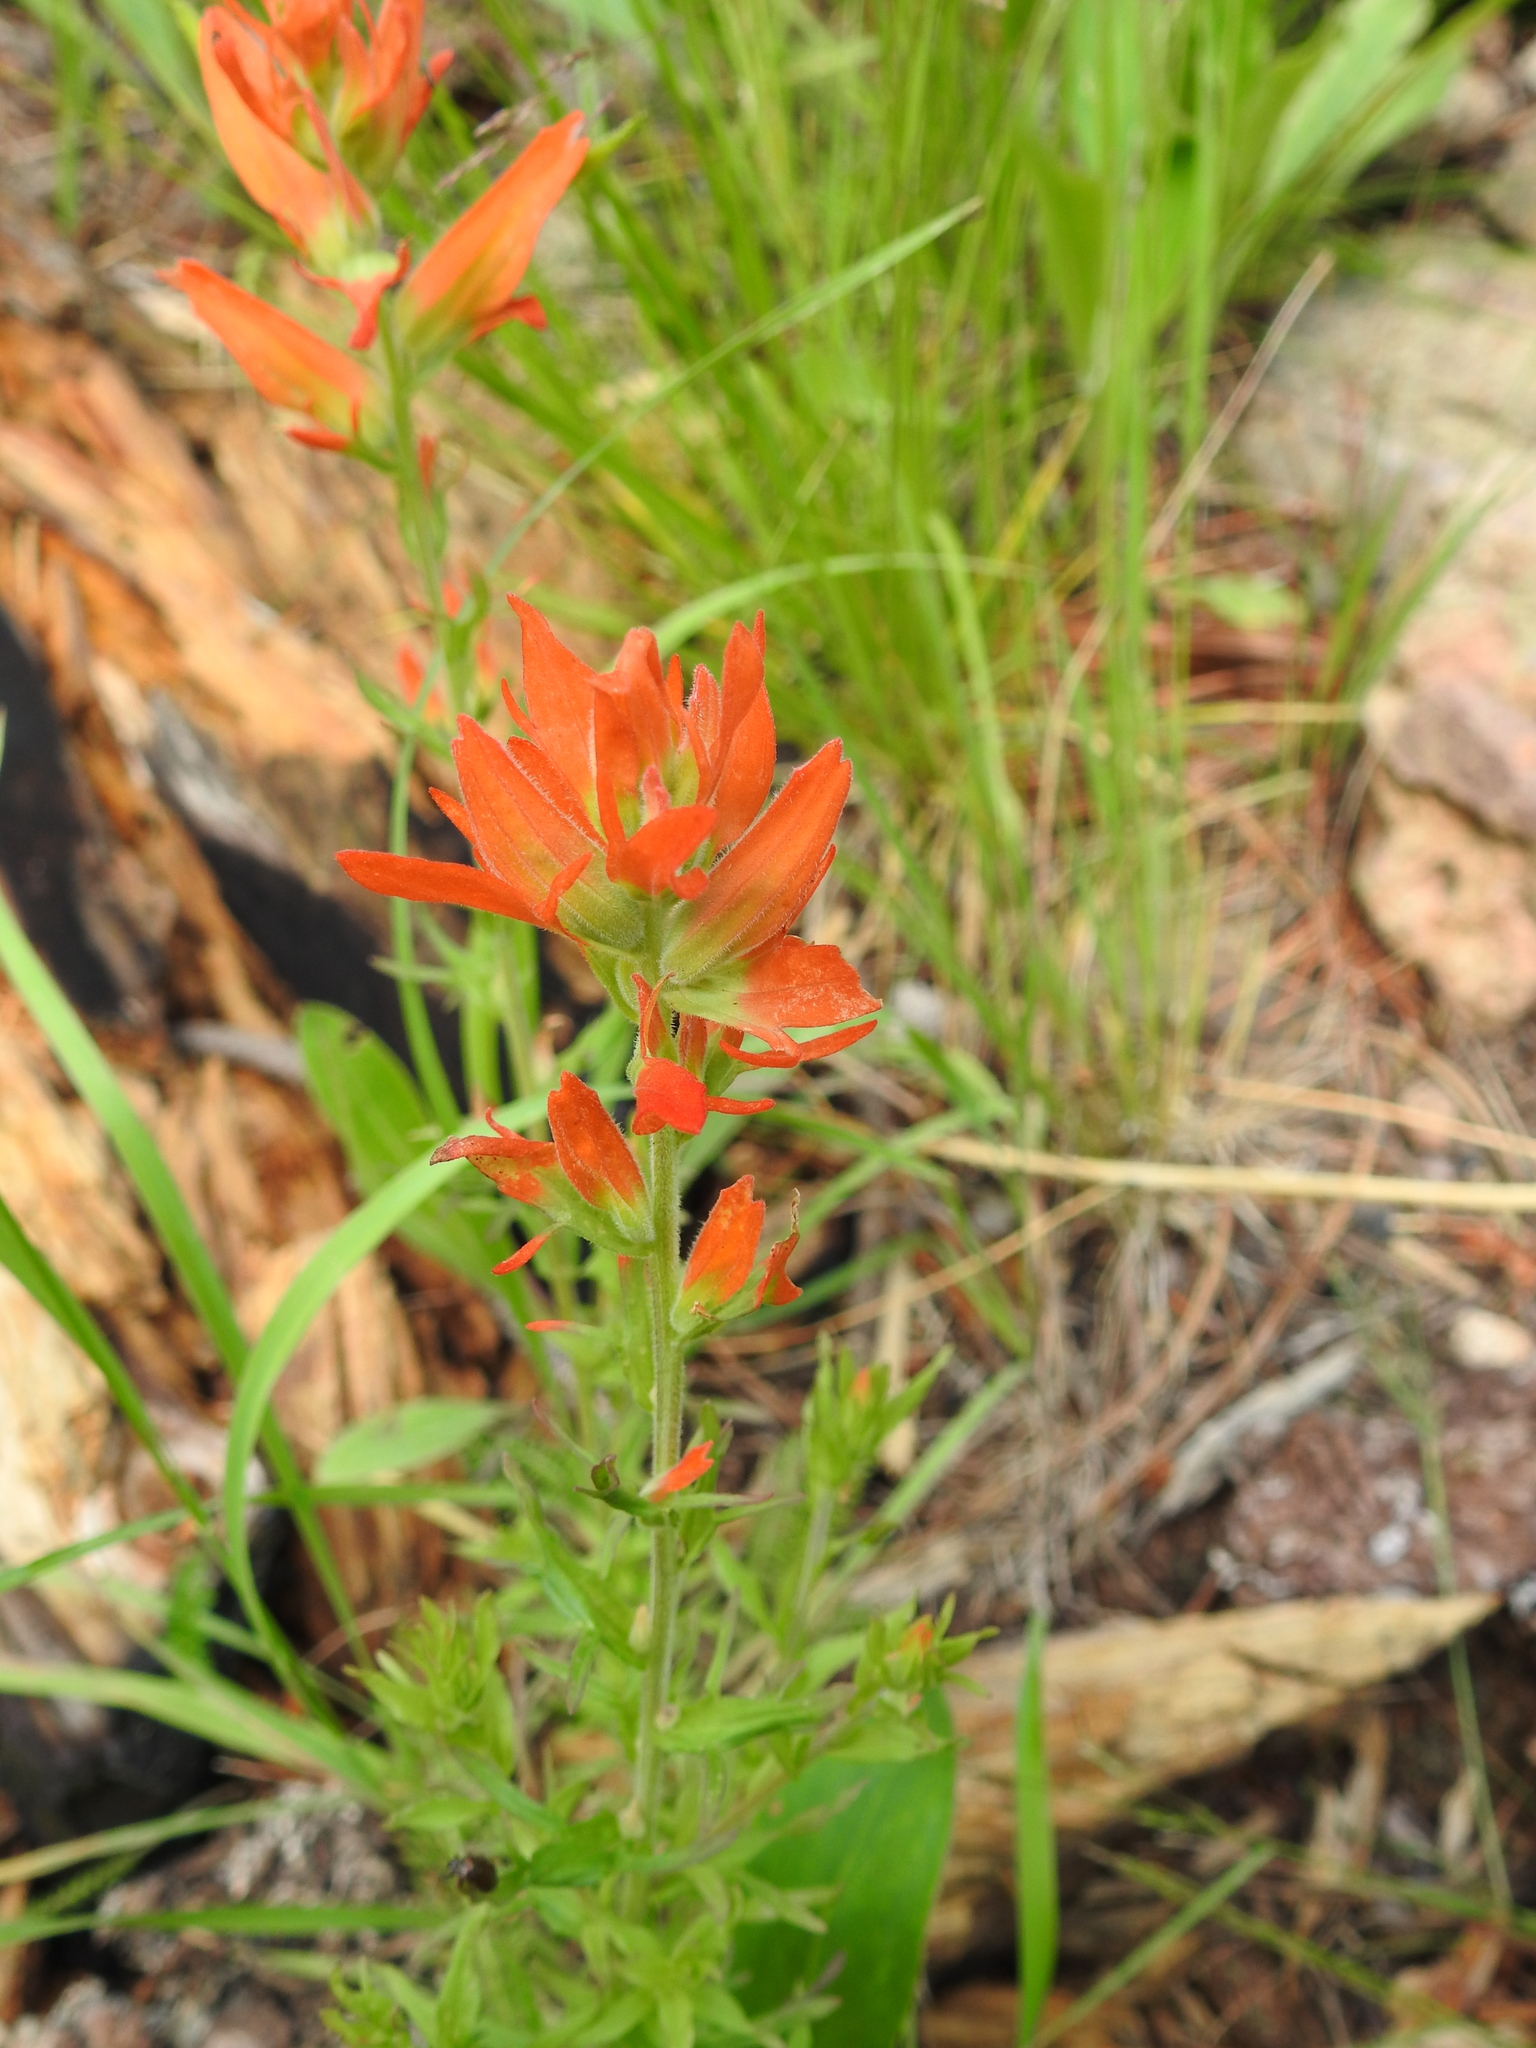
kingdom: Plantae
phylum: Tracheophyta
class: Magnoliopsida
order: Lamiales
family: Orobanchaceae
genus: Castilleja
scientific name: Castilleja patriotica
